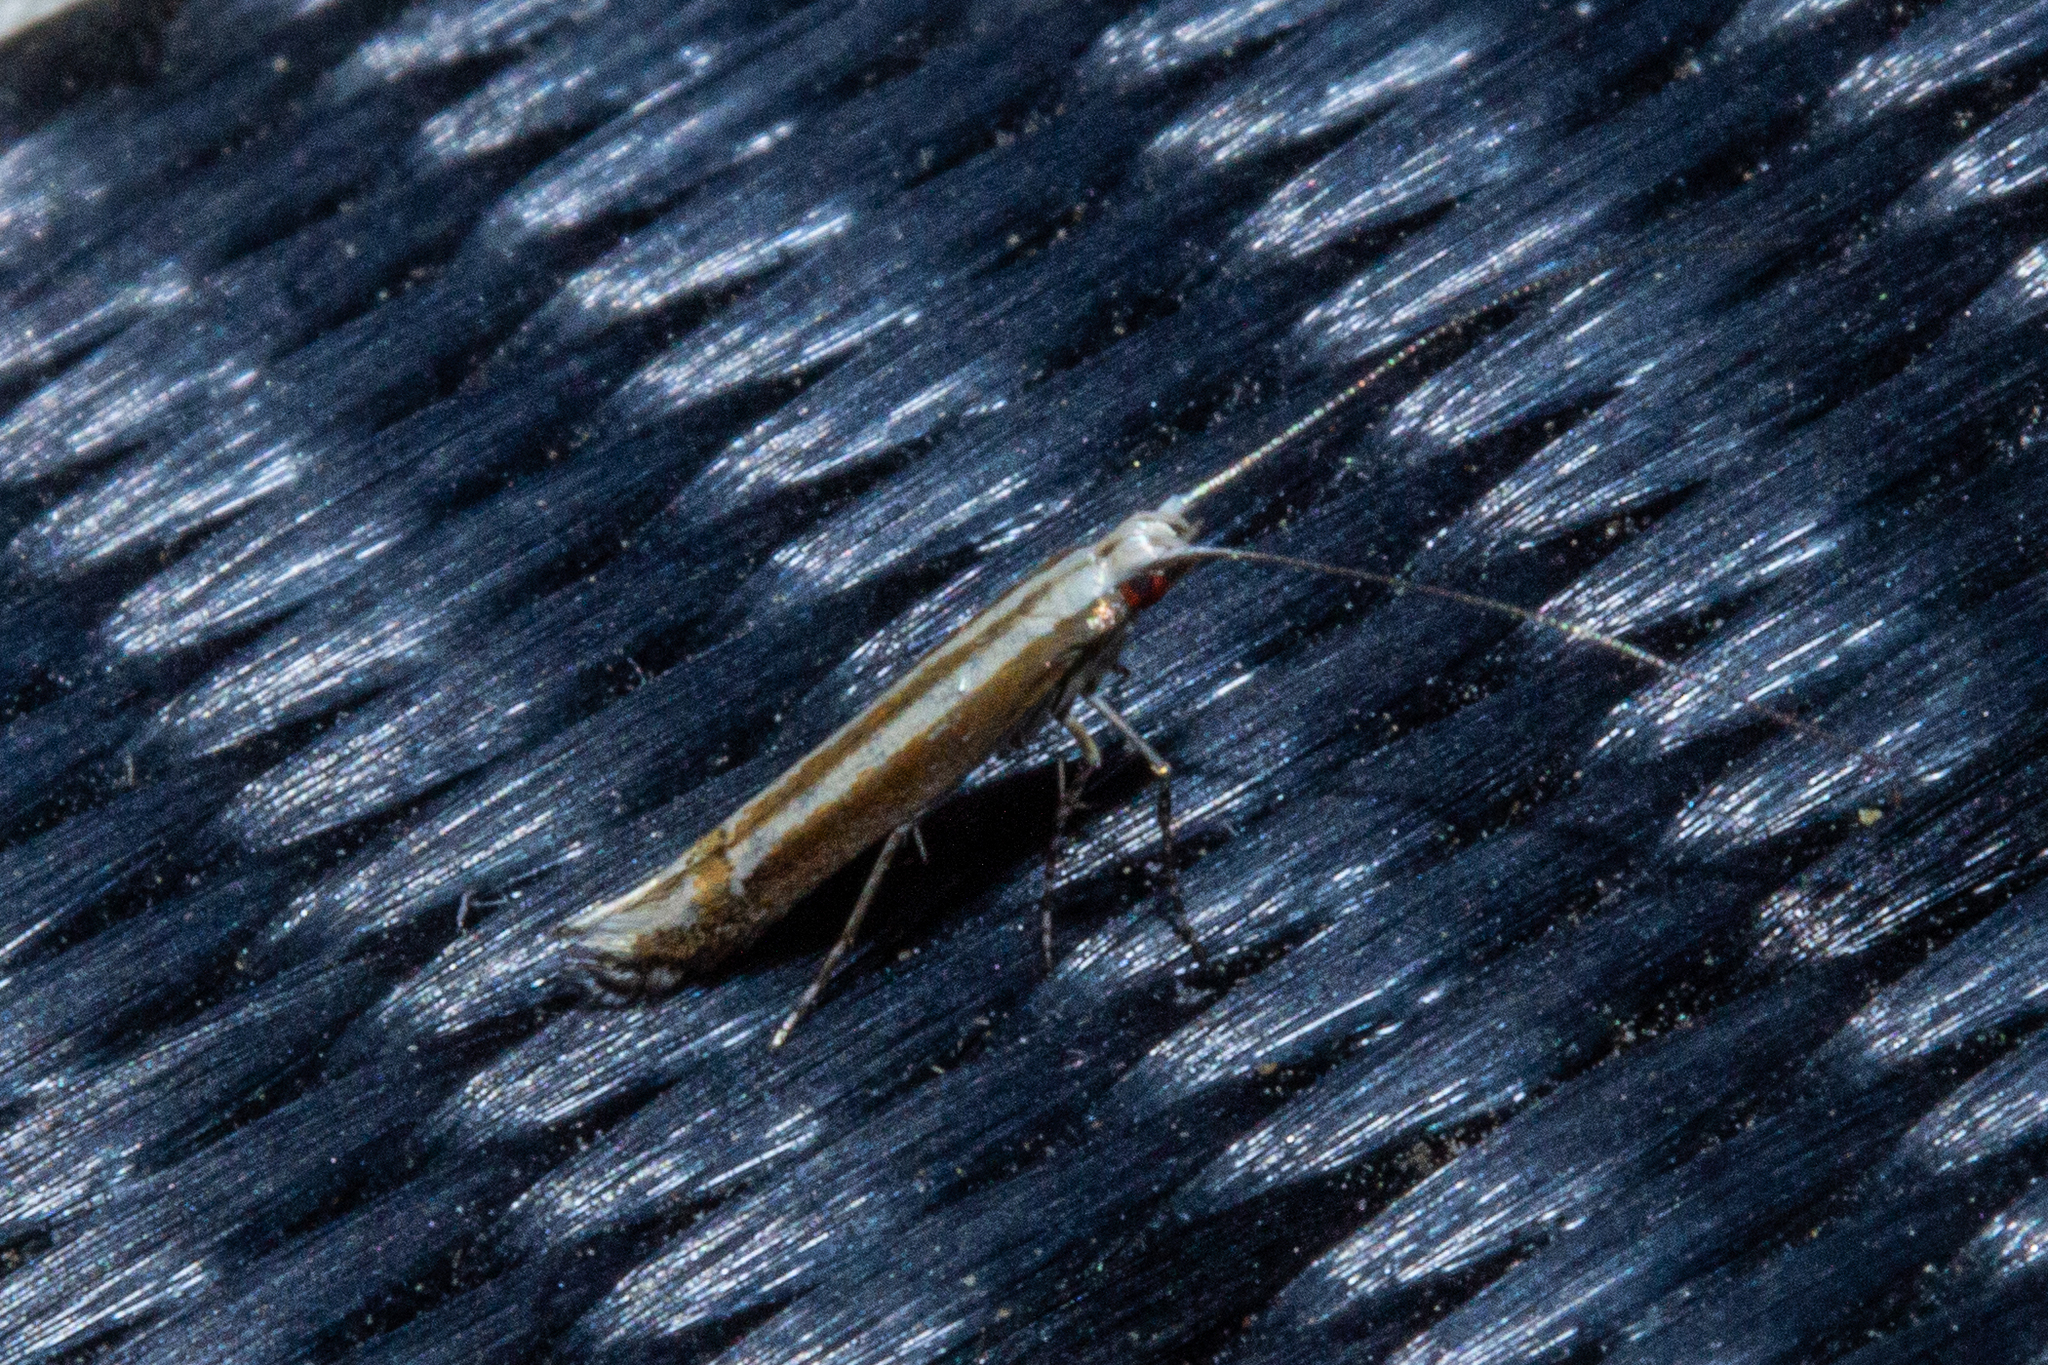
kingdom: Animalia
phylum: Arthropoda
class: Insecta
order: Lepidoptera
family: Gracillariidae
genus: Acrocercops
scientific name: Acrocercops laciniella
